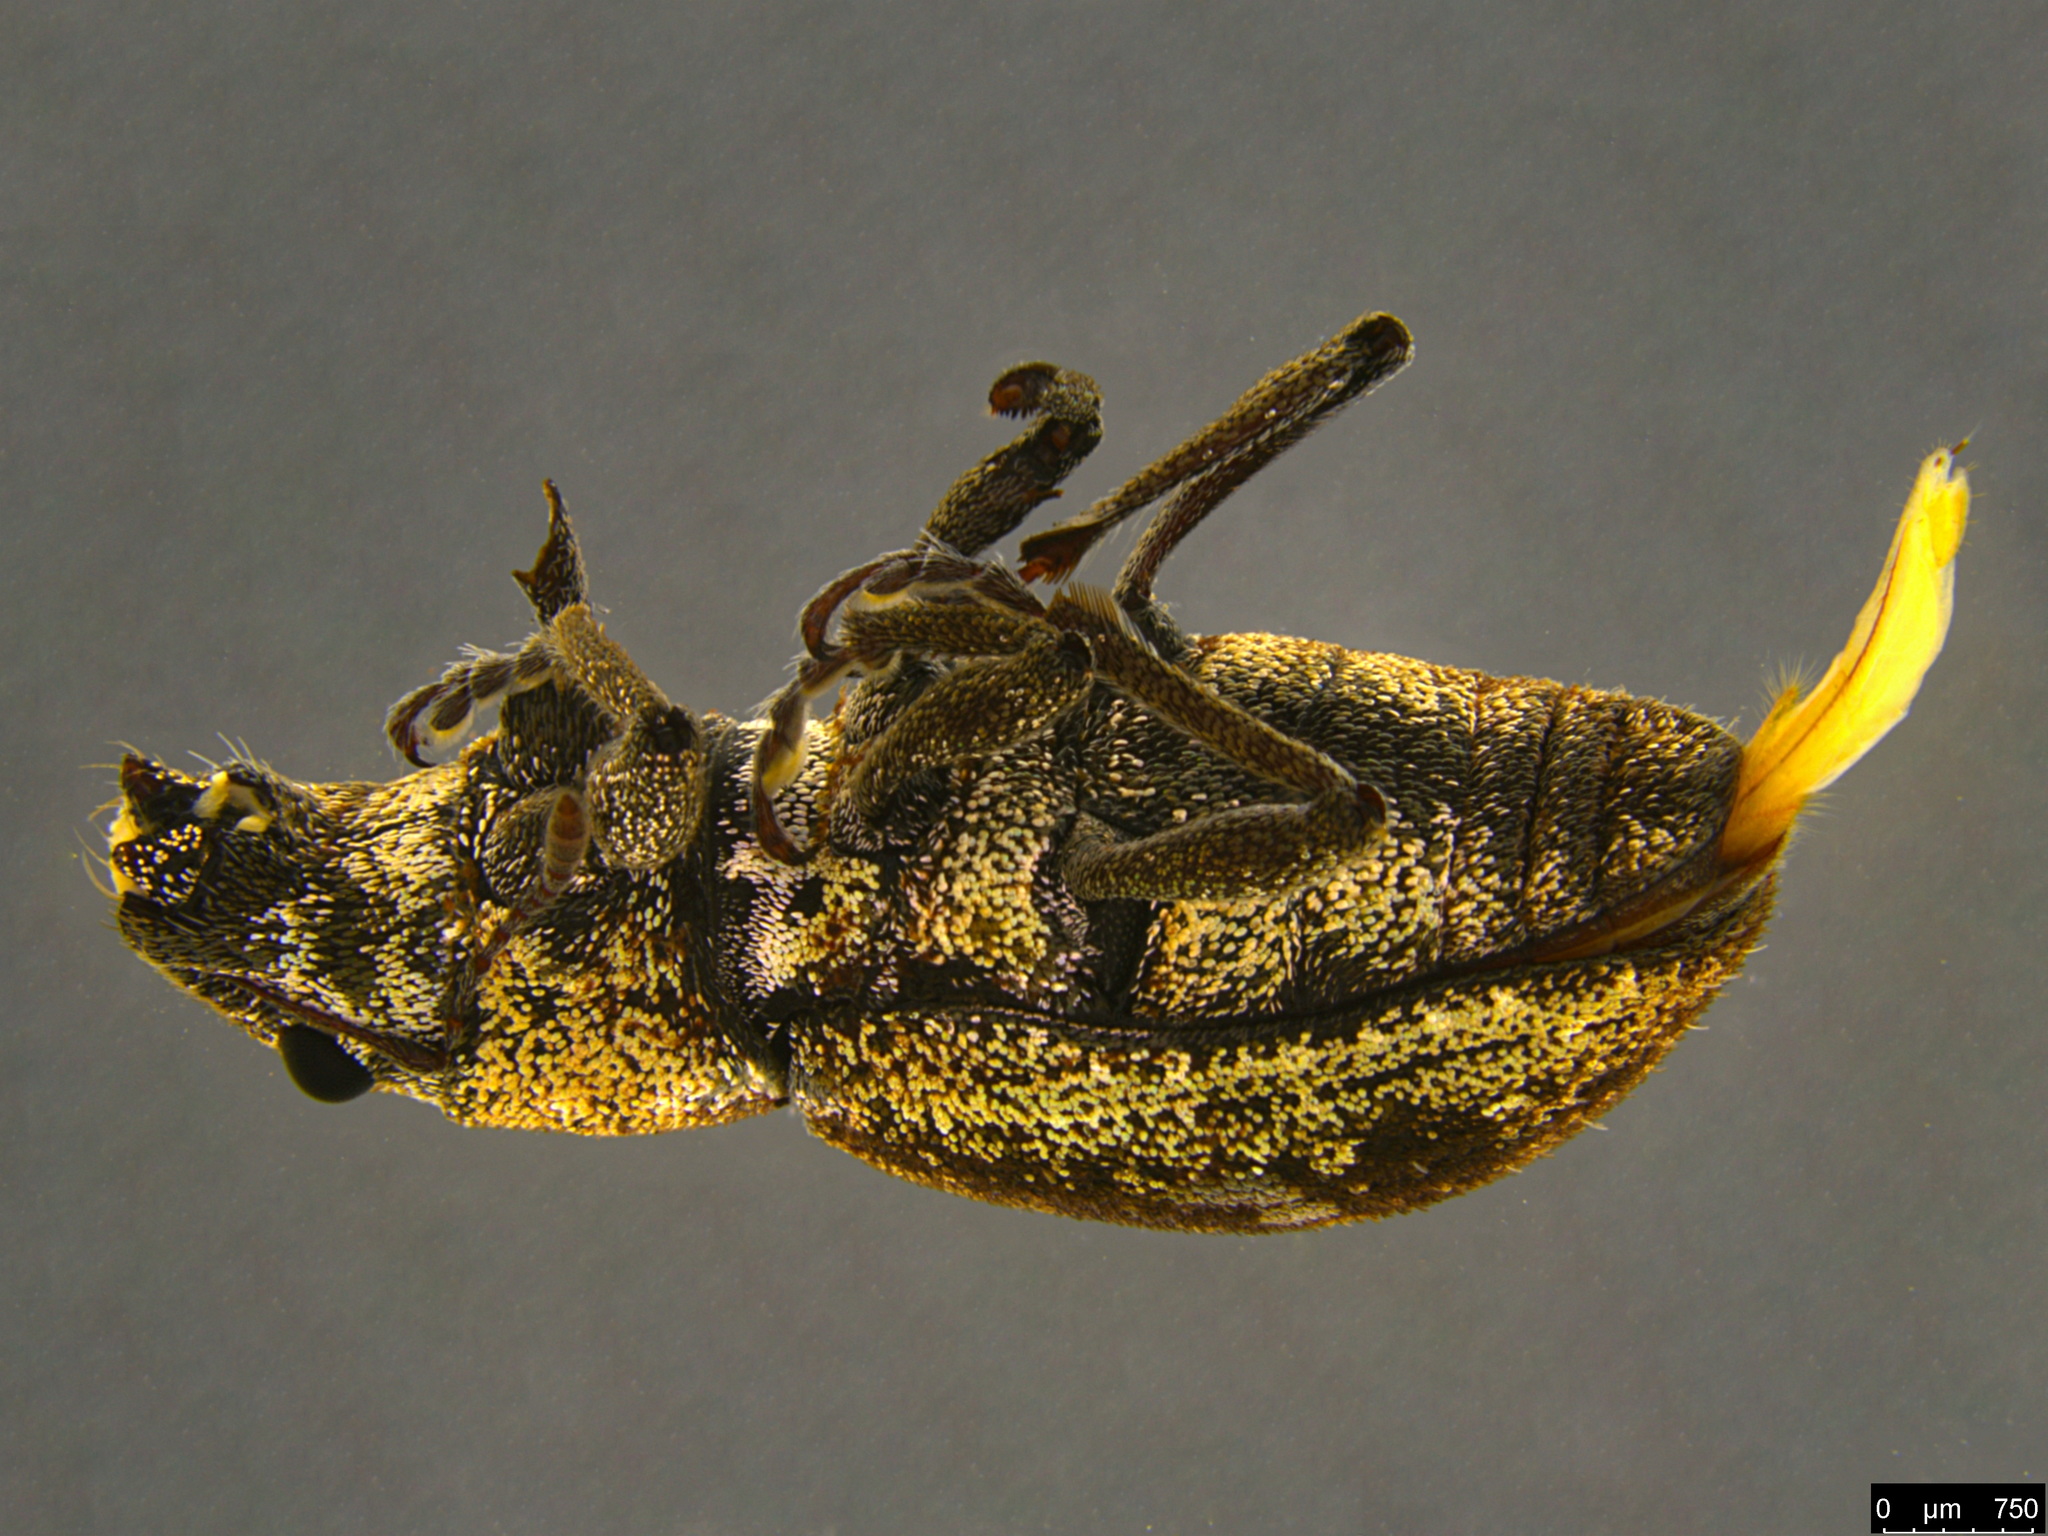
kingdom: Animalia
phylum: Arthropoda
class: Insecta
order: Coleoptera
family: Curculionidae
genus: Naupactus
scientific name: Naupactus cervinus
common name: Fuller rose beetle
